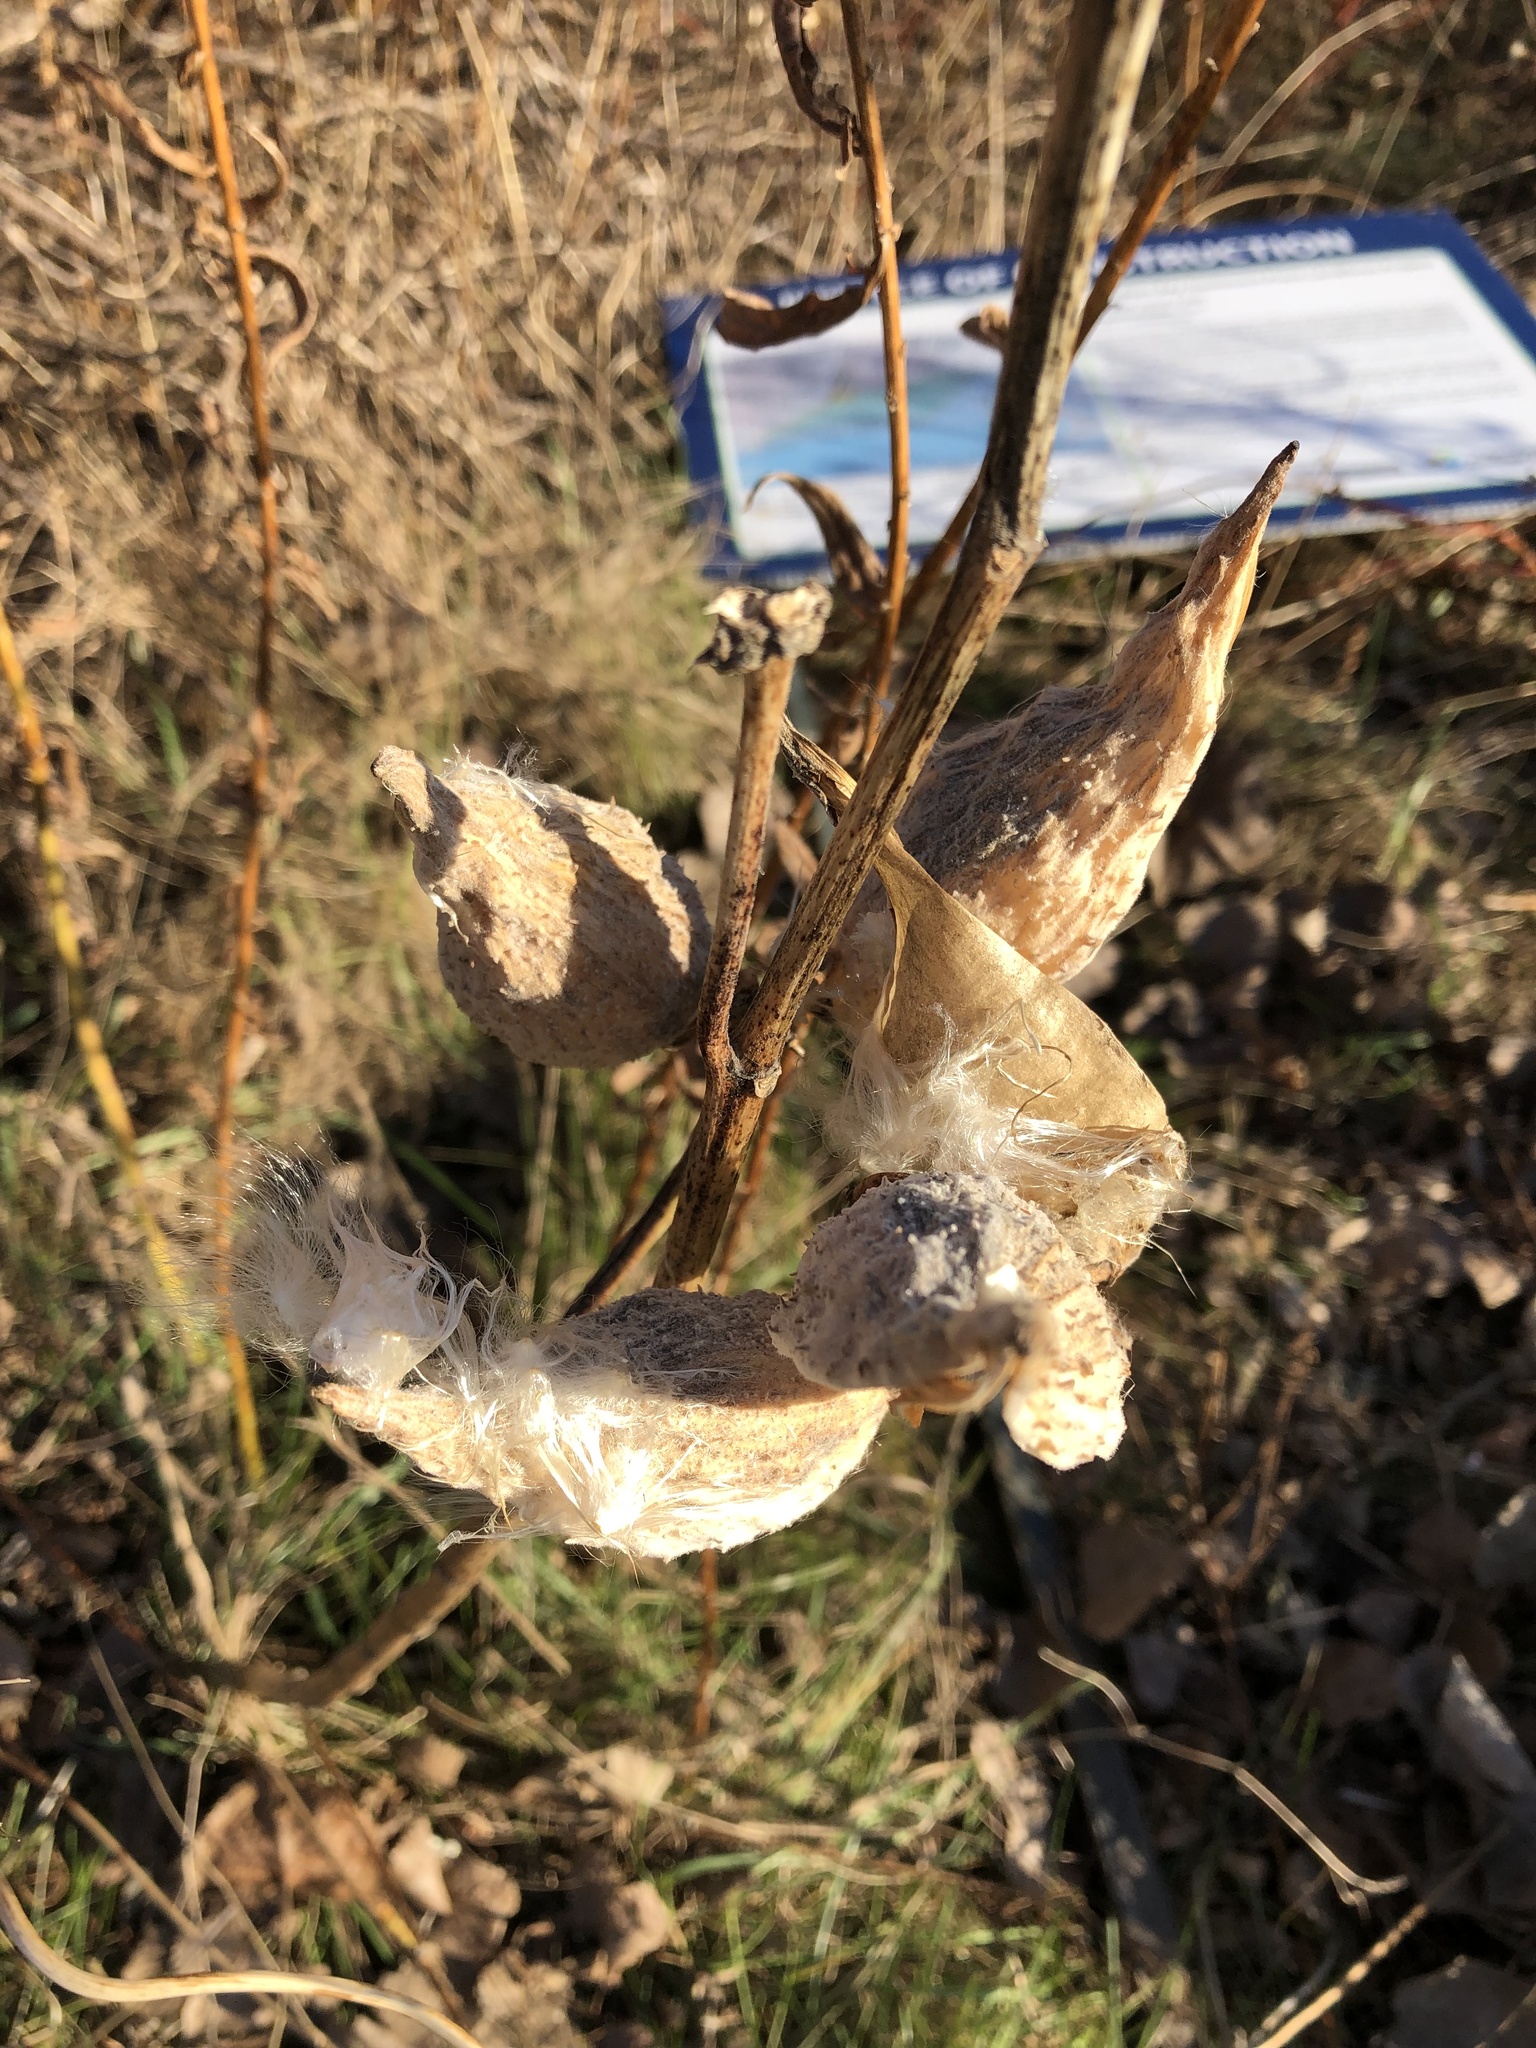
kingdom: Plantae
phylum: Tracheophyta
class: Magnoliopsida
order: Gentianales
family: Apocynaceae
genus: Asclepias
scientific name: Asclepias syriaca
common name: Common milkweed
